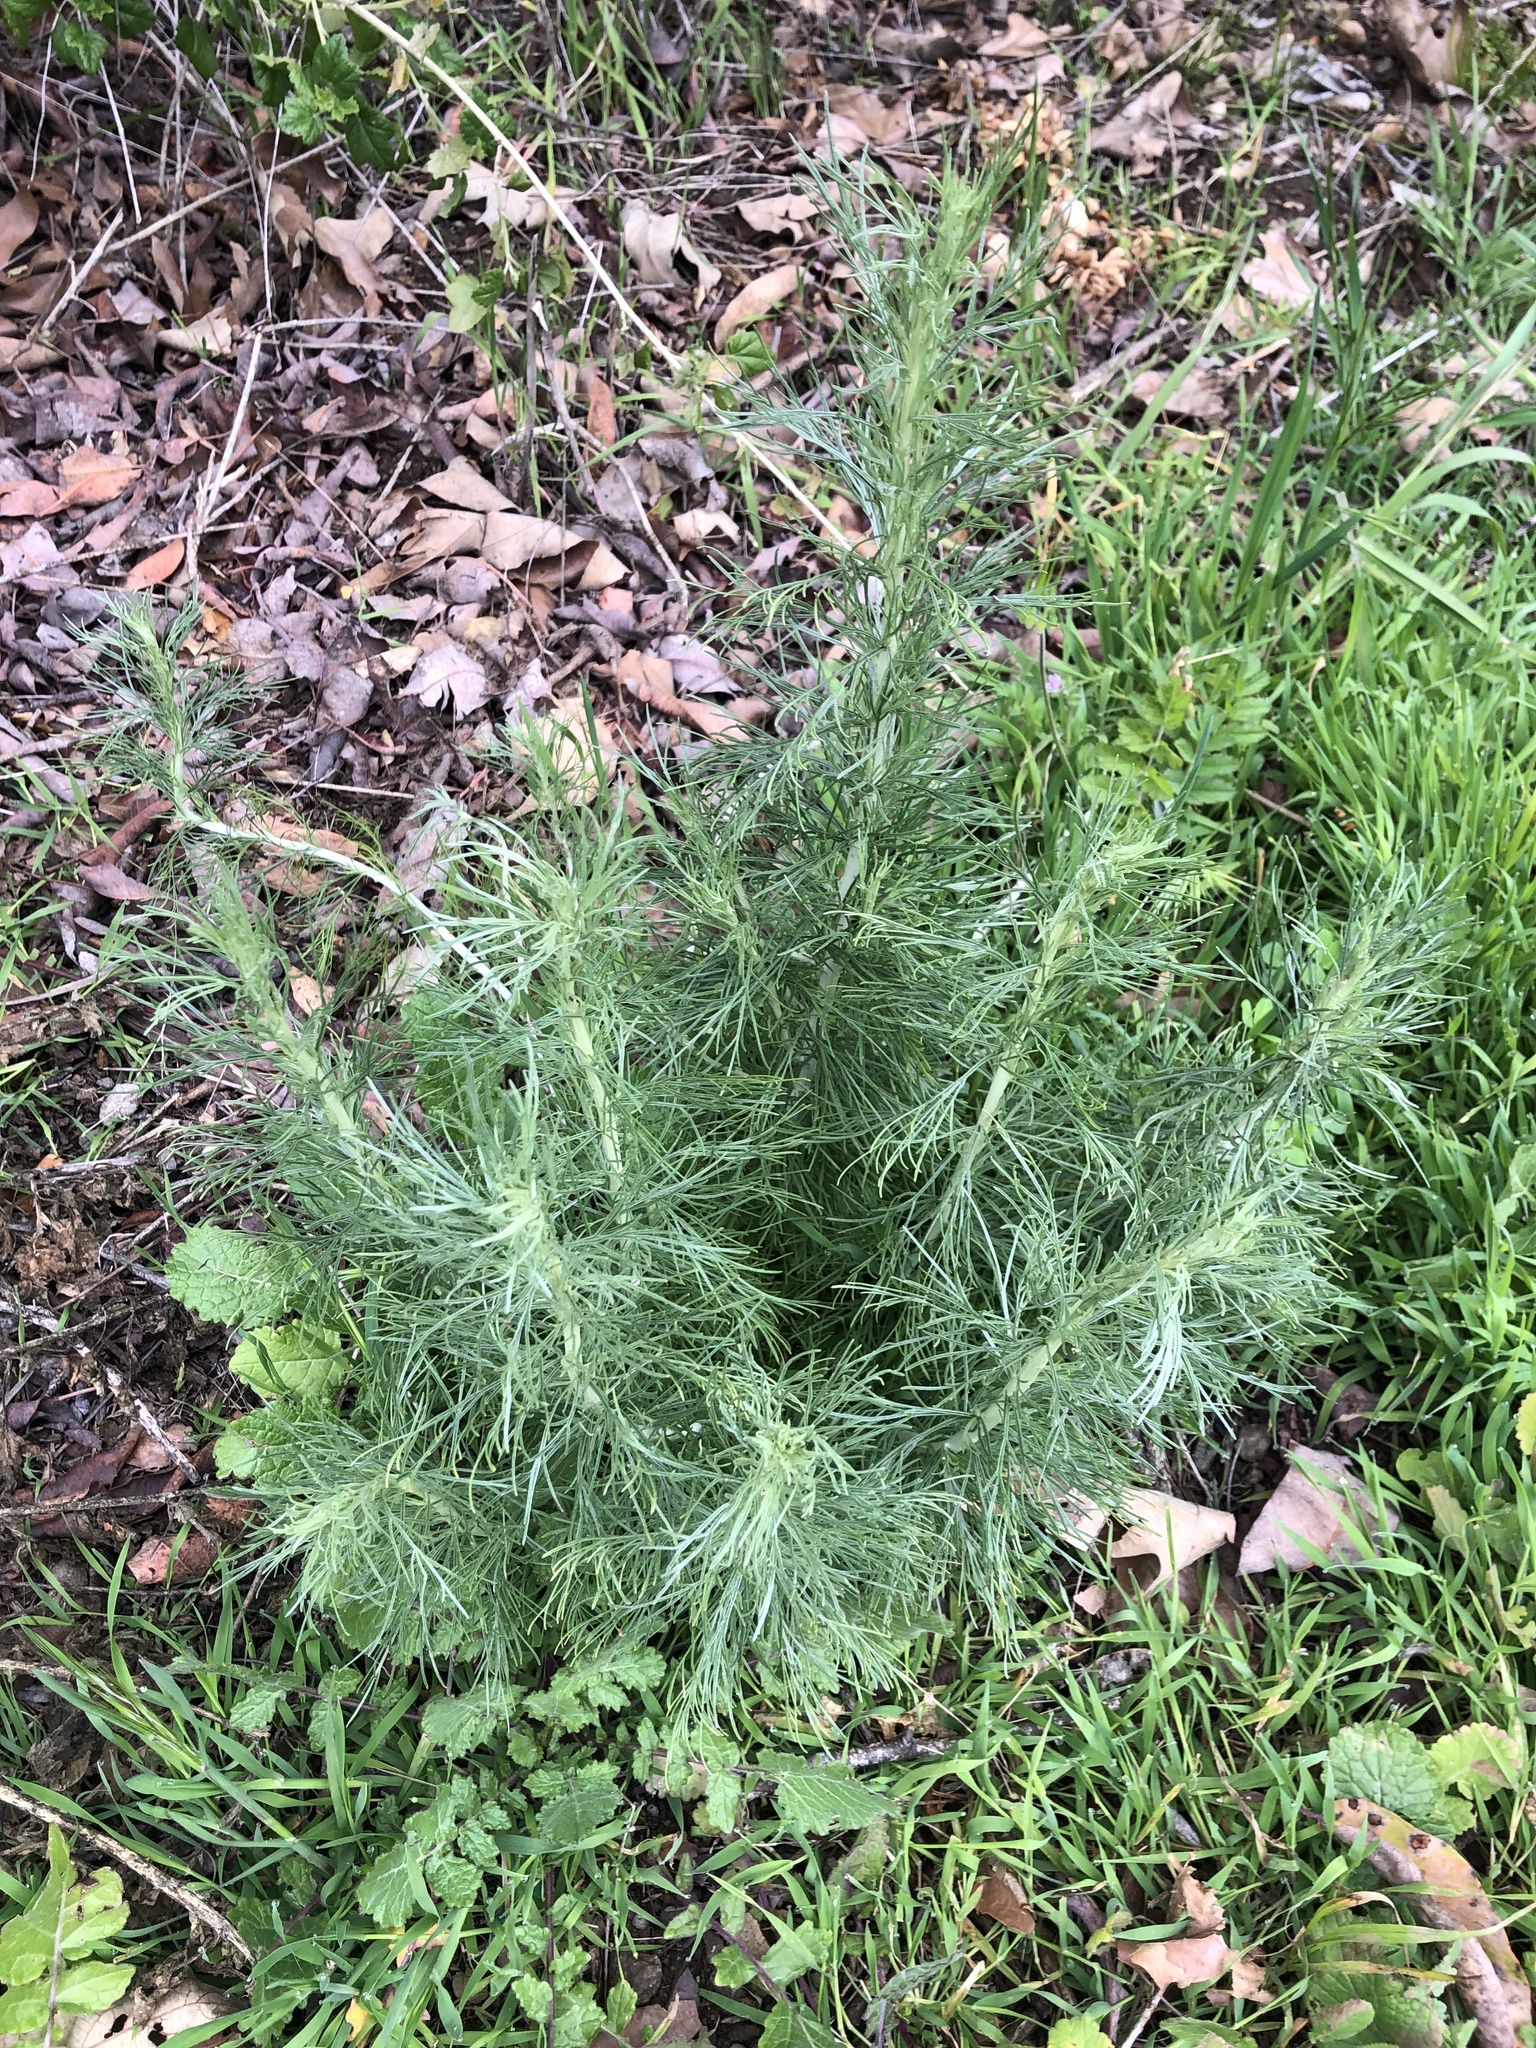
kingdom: Plantae
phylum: Tracheophyta
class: Magnoliopsida
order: Asterales
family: Asteraceae
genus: Artemisia
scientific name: Artemisia californica
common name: California sagebrush
